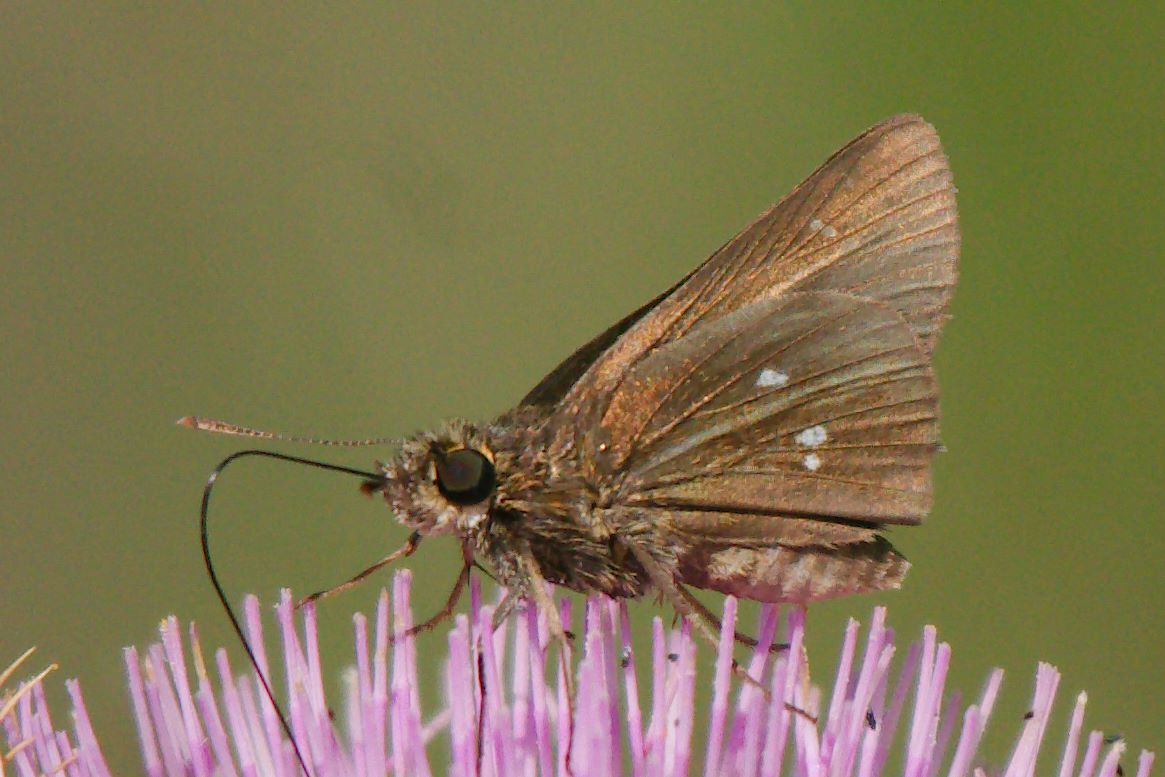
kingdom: Animalia
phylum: Arthropoda
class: Insecta
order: Lepidoptera
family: Hesperiidae
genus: Oligoria
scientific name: Oligoria maculata
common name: Twin-spot skipper
